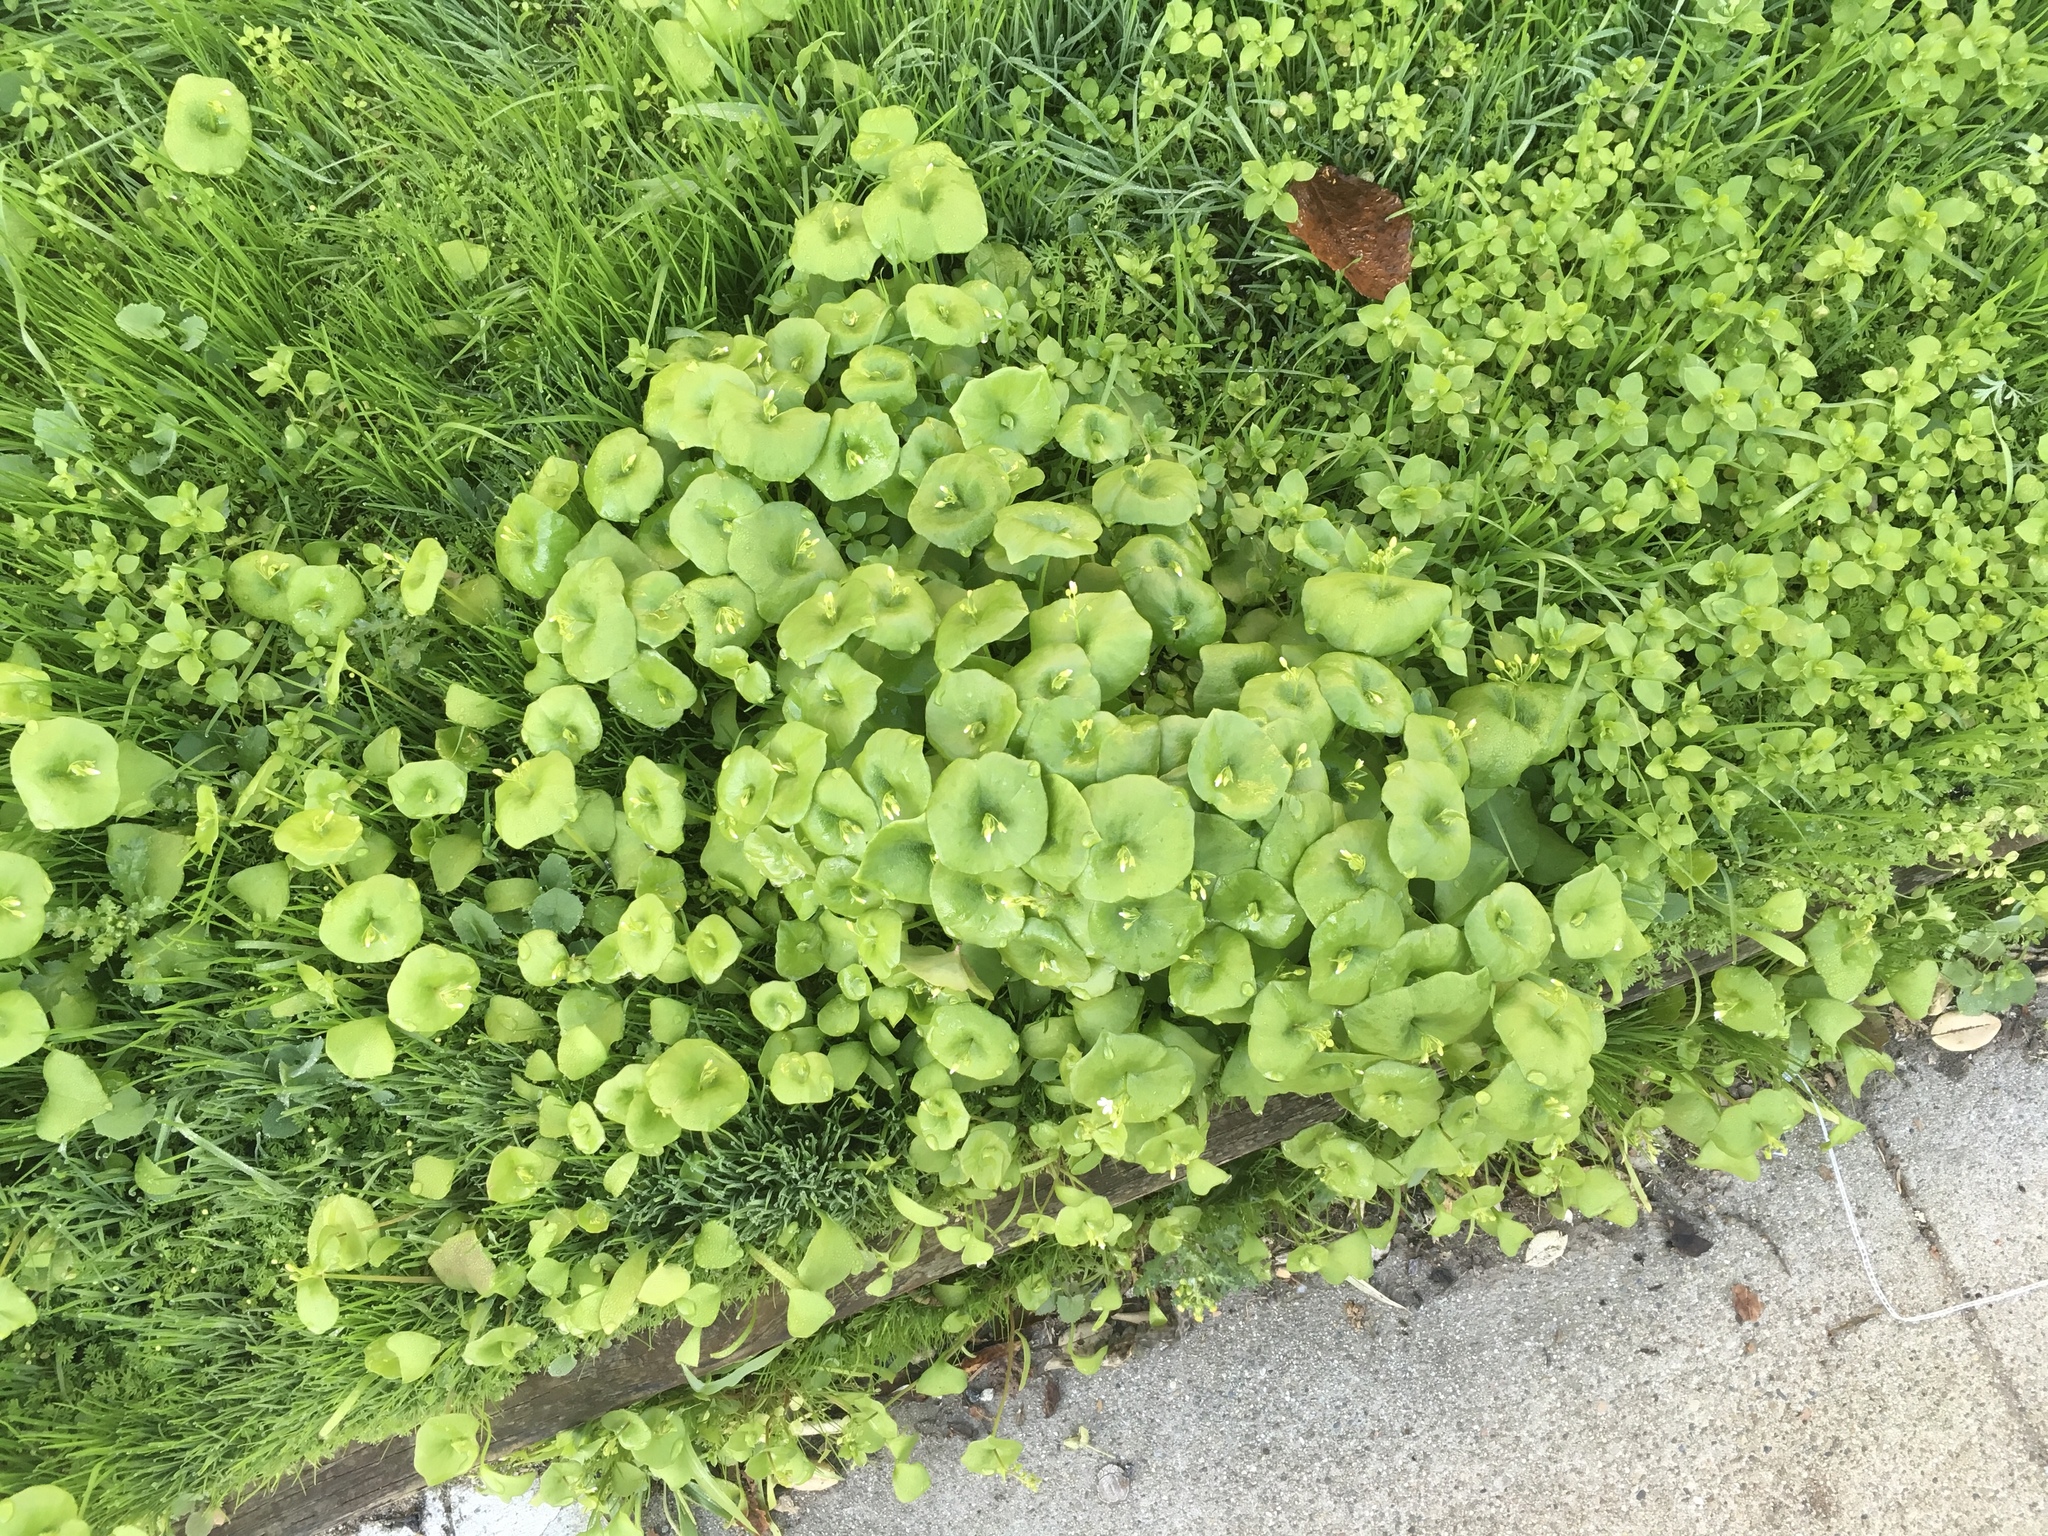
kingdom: Plantae
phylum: Tracheophyta
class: Magnoliopsida
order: Caryophyllales
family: Montiaceae
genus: Claytonia
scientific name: Claytonia perfoliata
